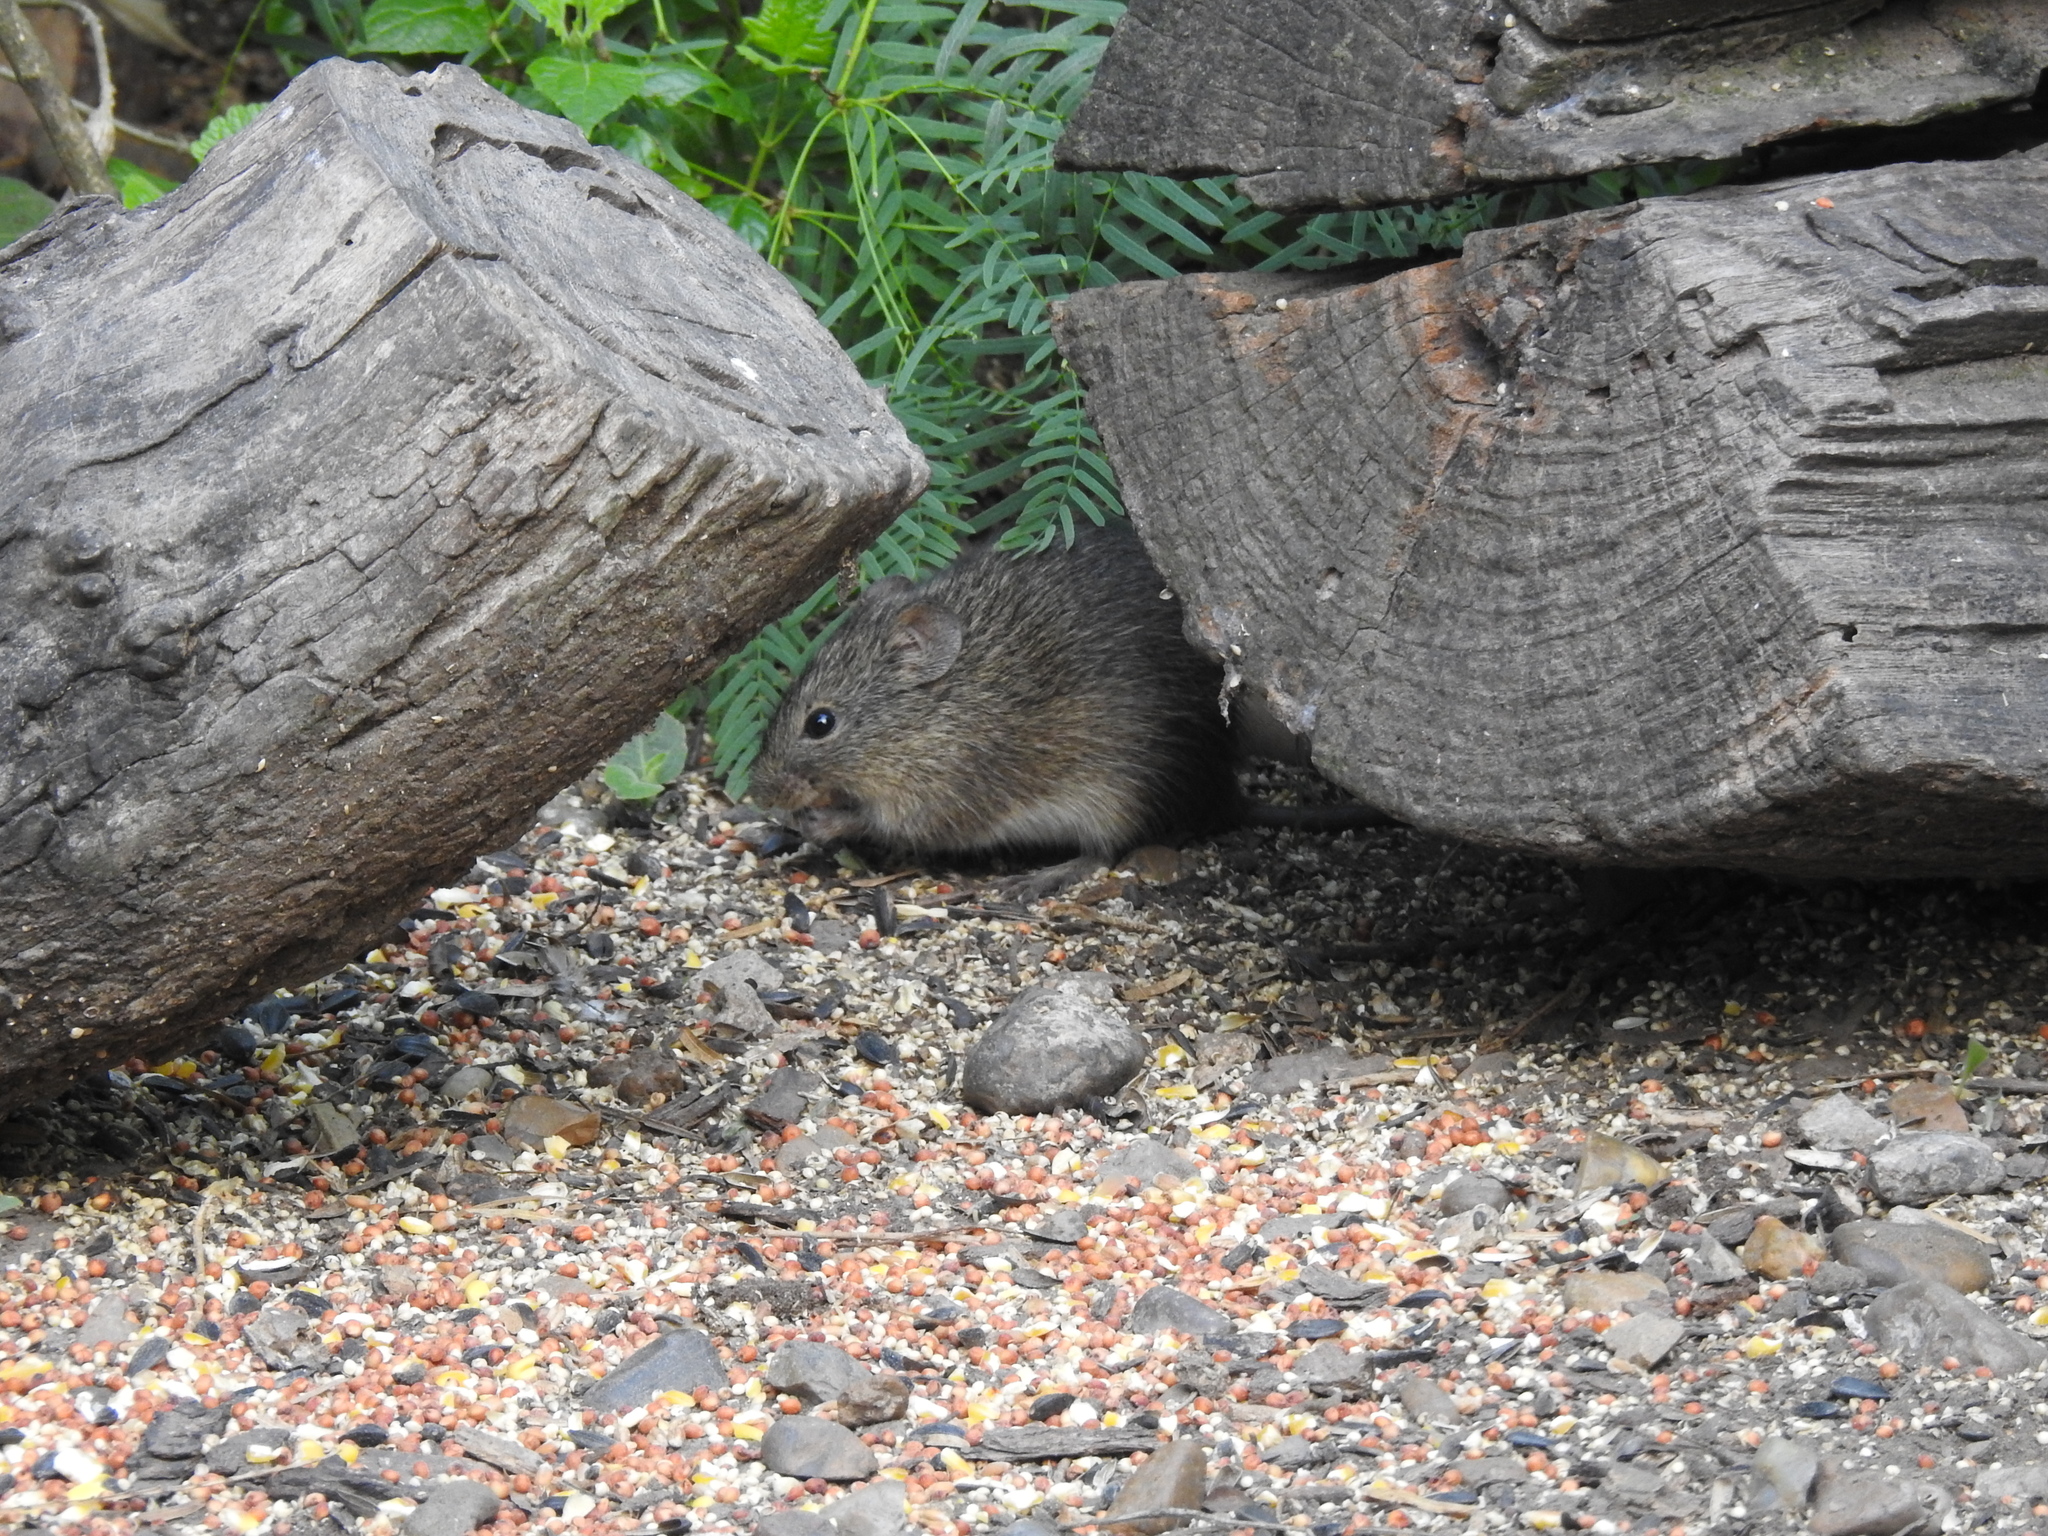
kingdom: Animalia
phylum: Chordata
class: Mammalia
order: Rodentia
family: Cricetidae
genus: Sigmodon
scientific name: Sigmodon hispidus
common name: Hispid cotton rat
